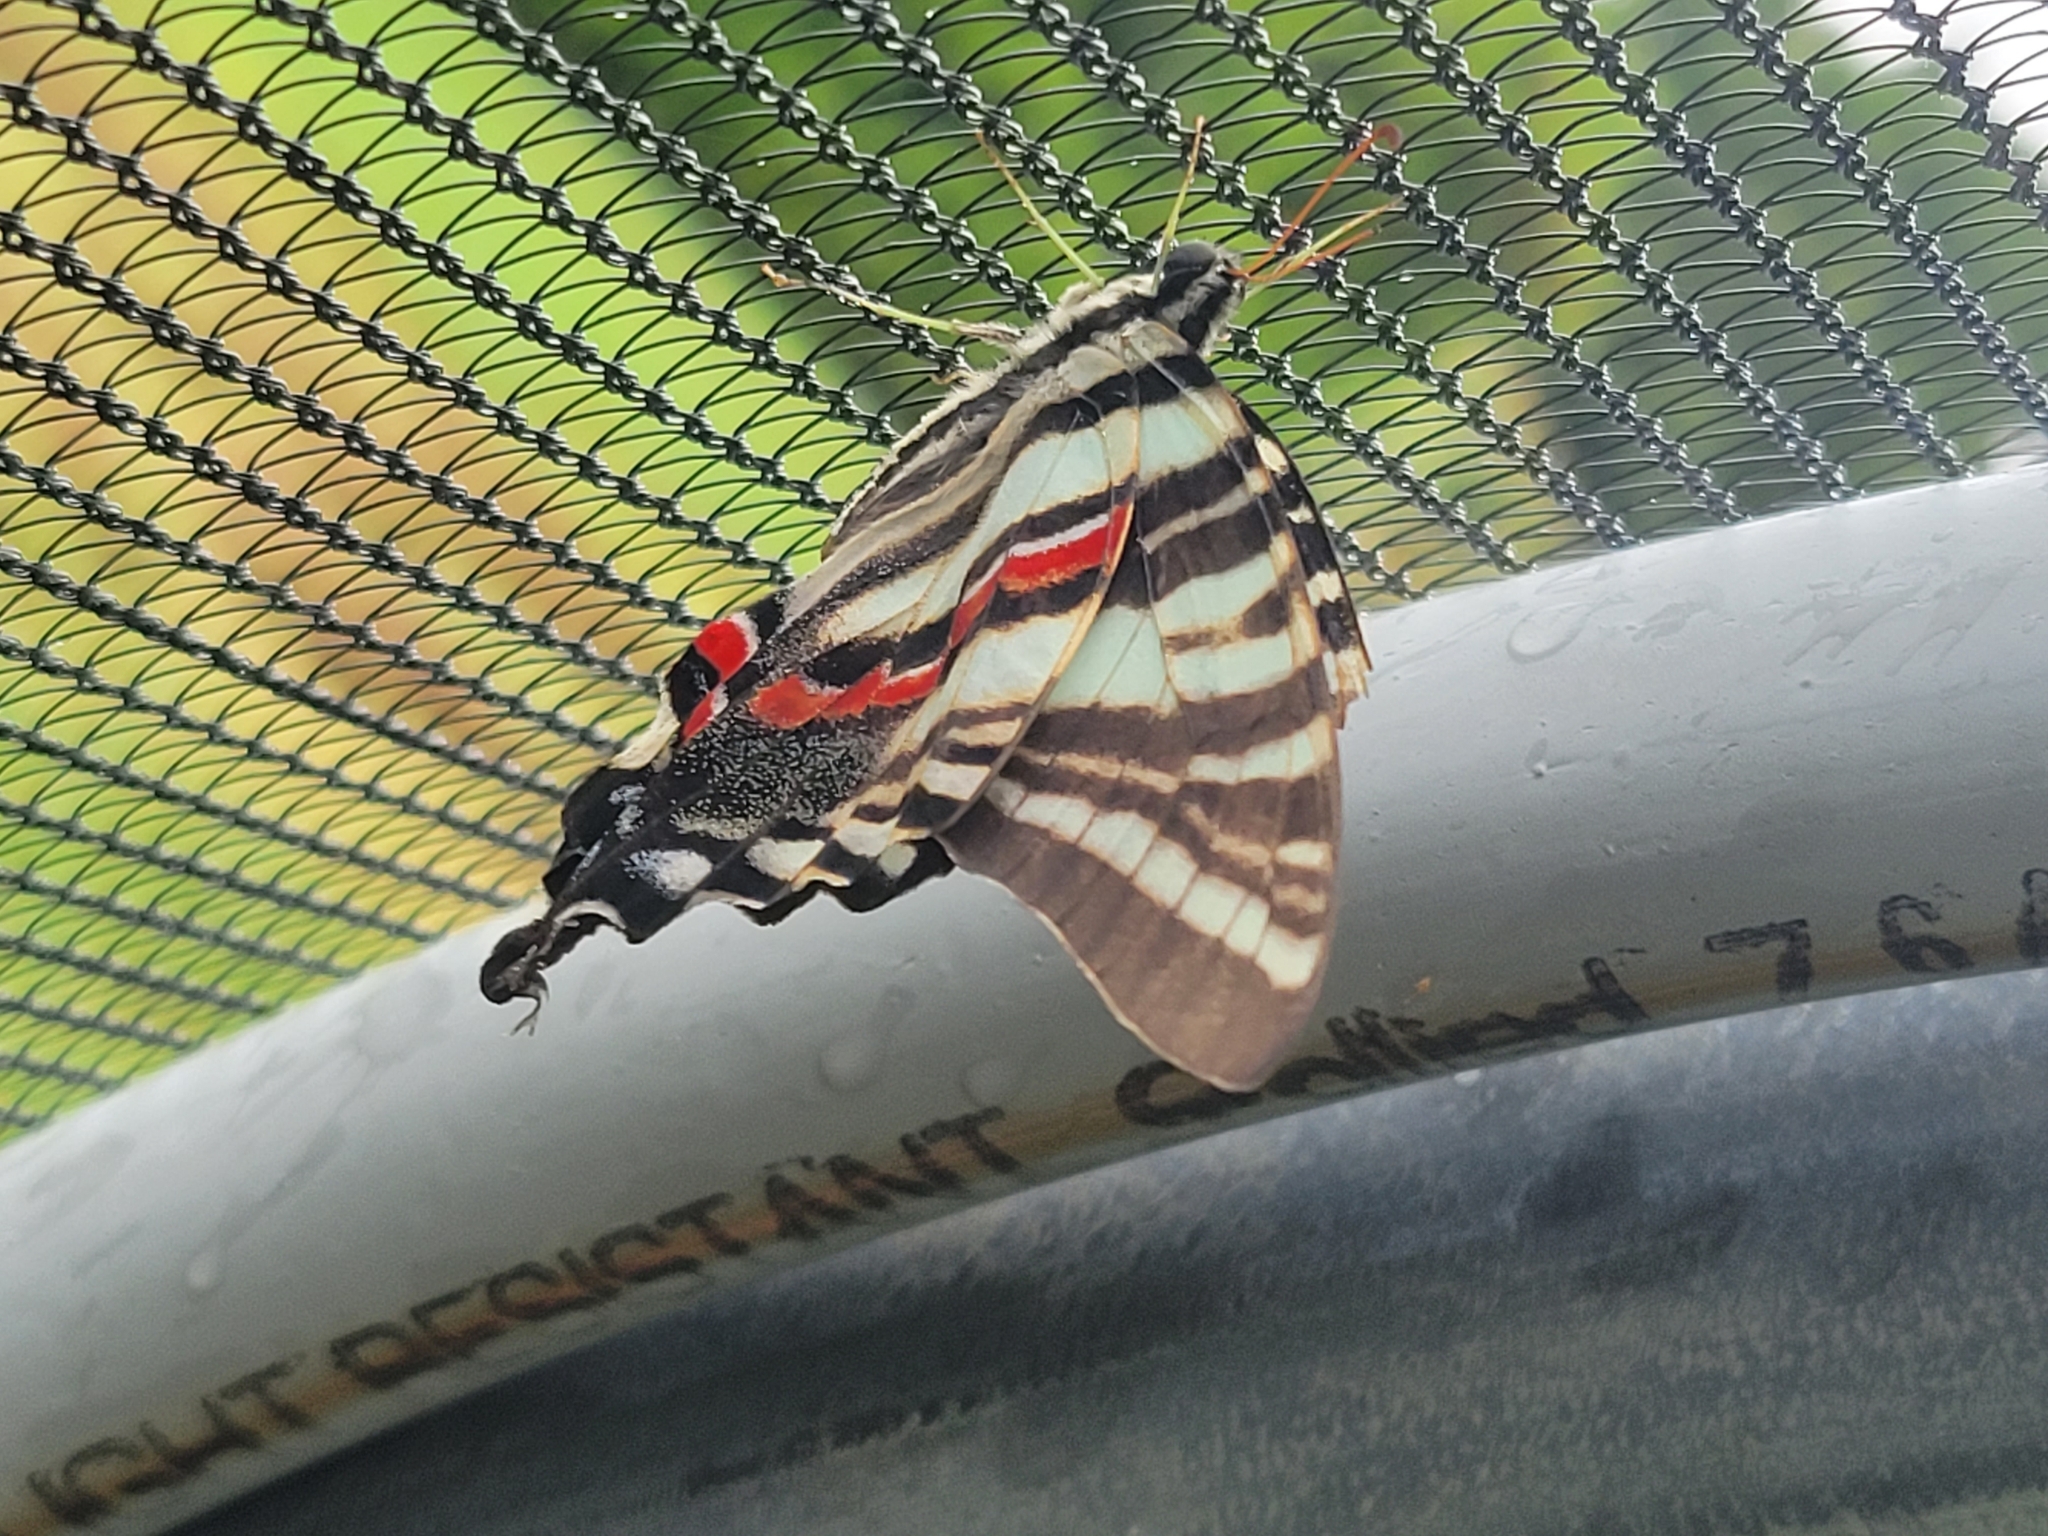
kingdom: Animalia
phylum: Arthropoda
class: Insecta
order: Lepidoptera
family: Papilionidae
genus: Protographium
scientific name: Protographium marcellus
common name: Zebra swallowtail
